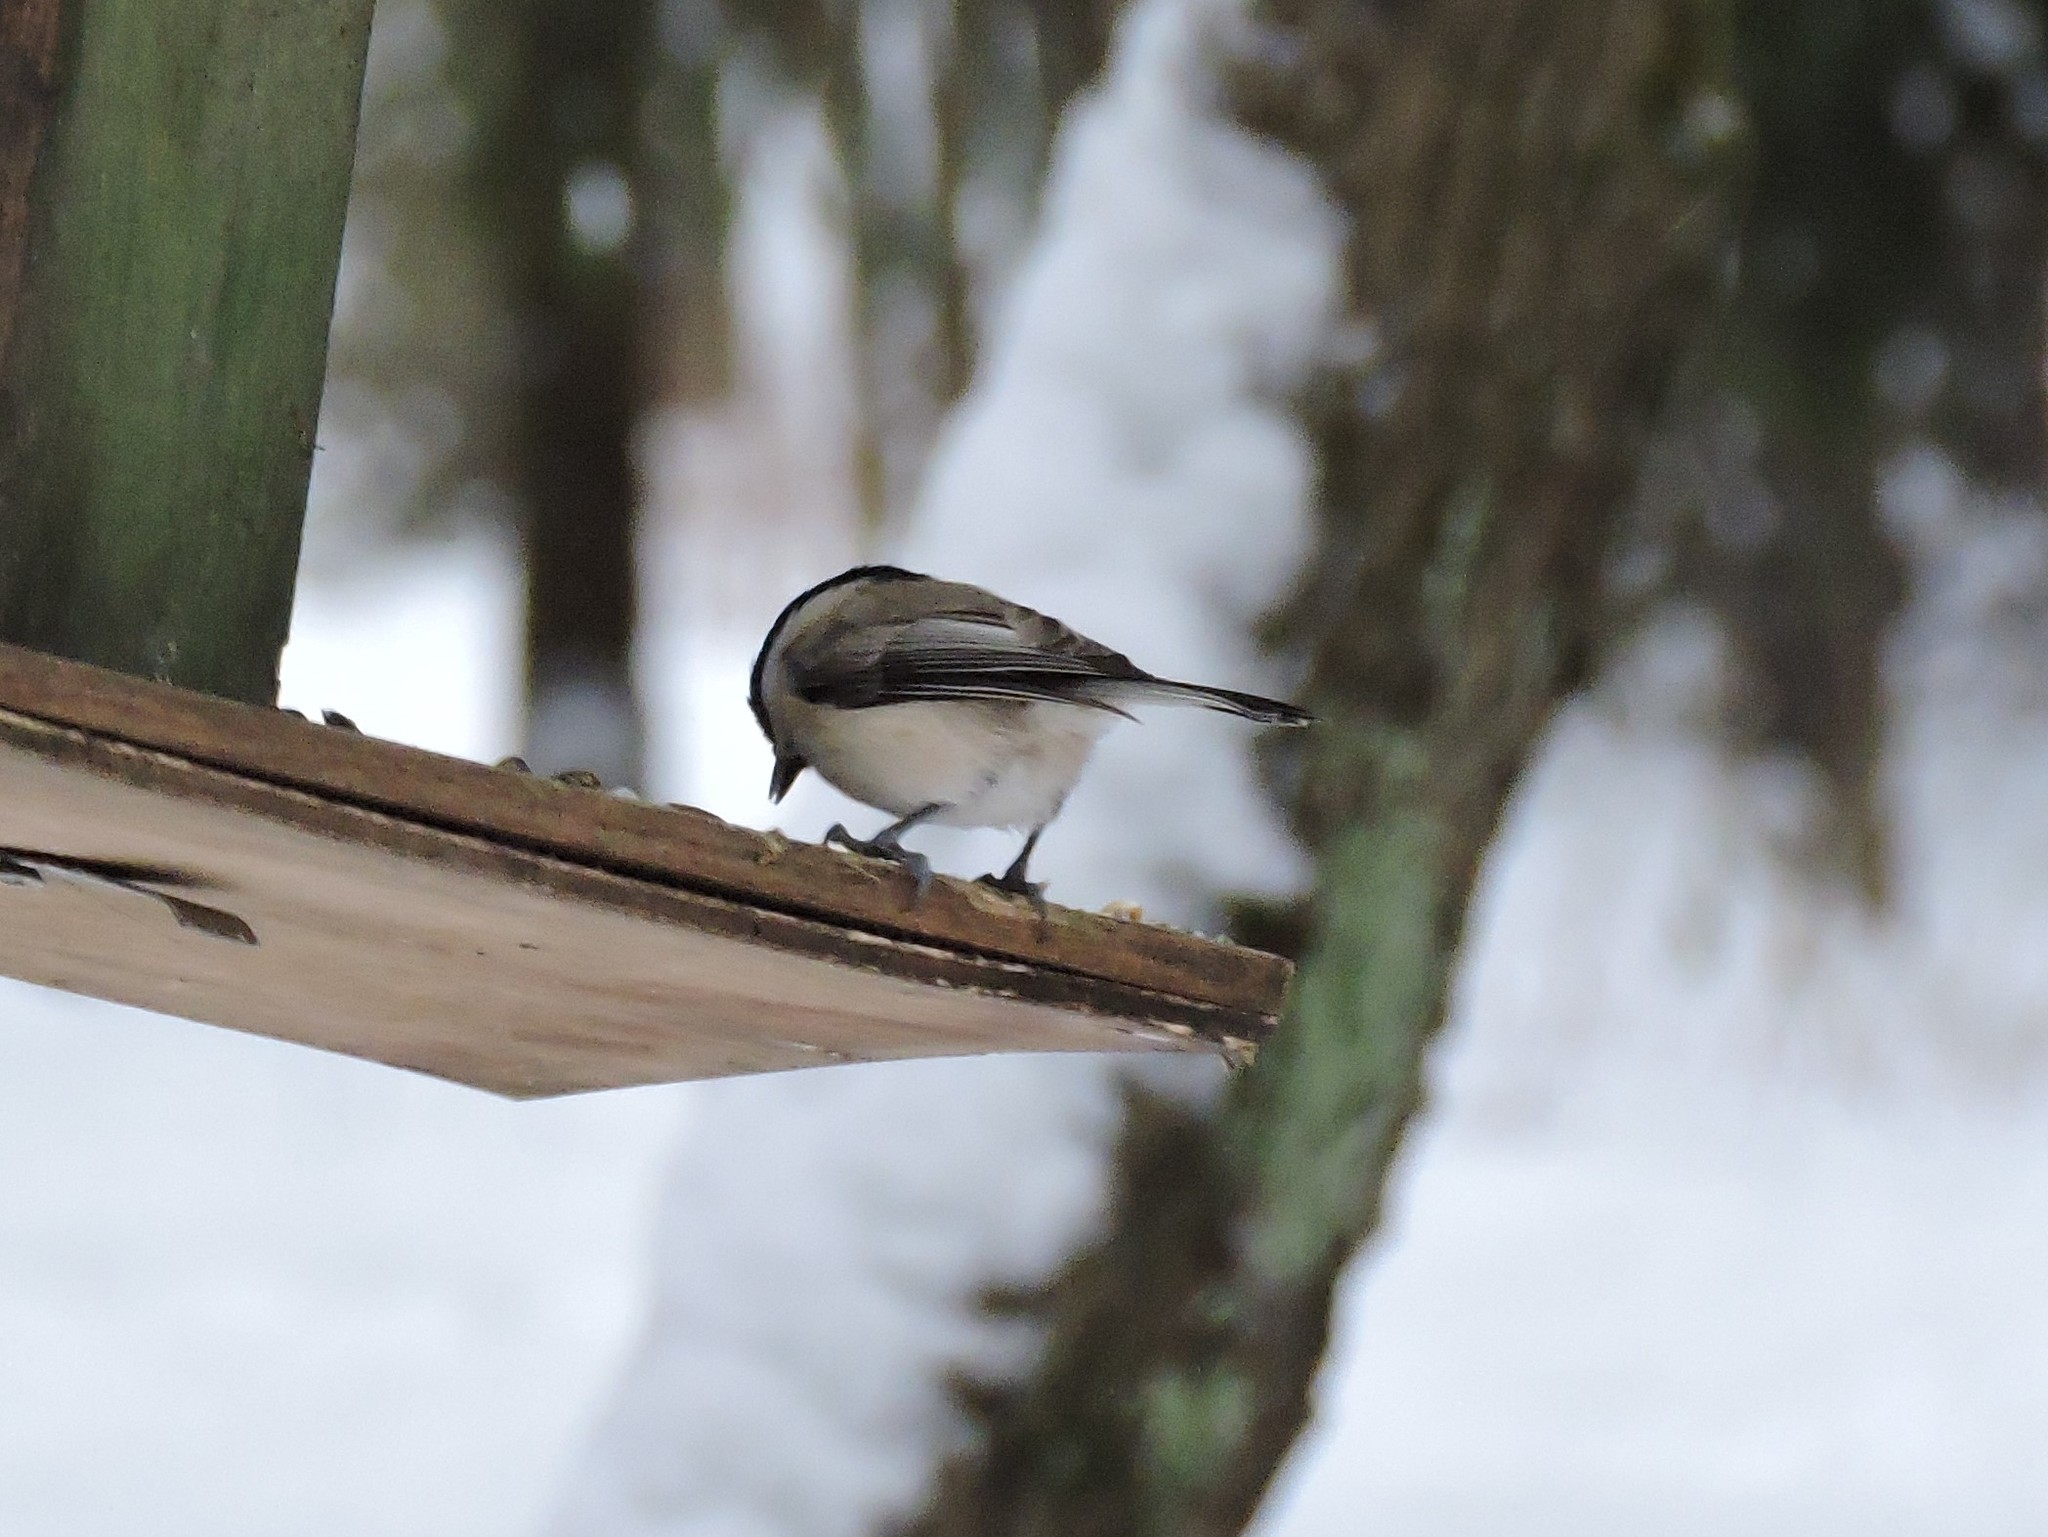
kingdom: Animalia
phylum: Chordata
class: Aves
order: Passeriformes
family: Paridae
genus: Poecile
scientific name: Poecile montanus
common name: Willow tit
